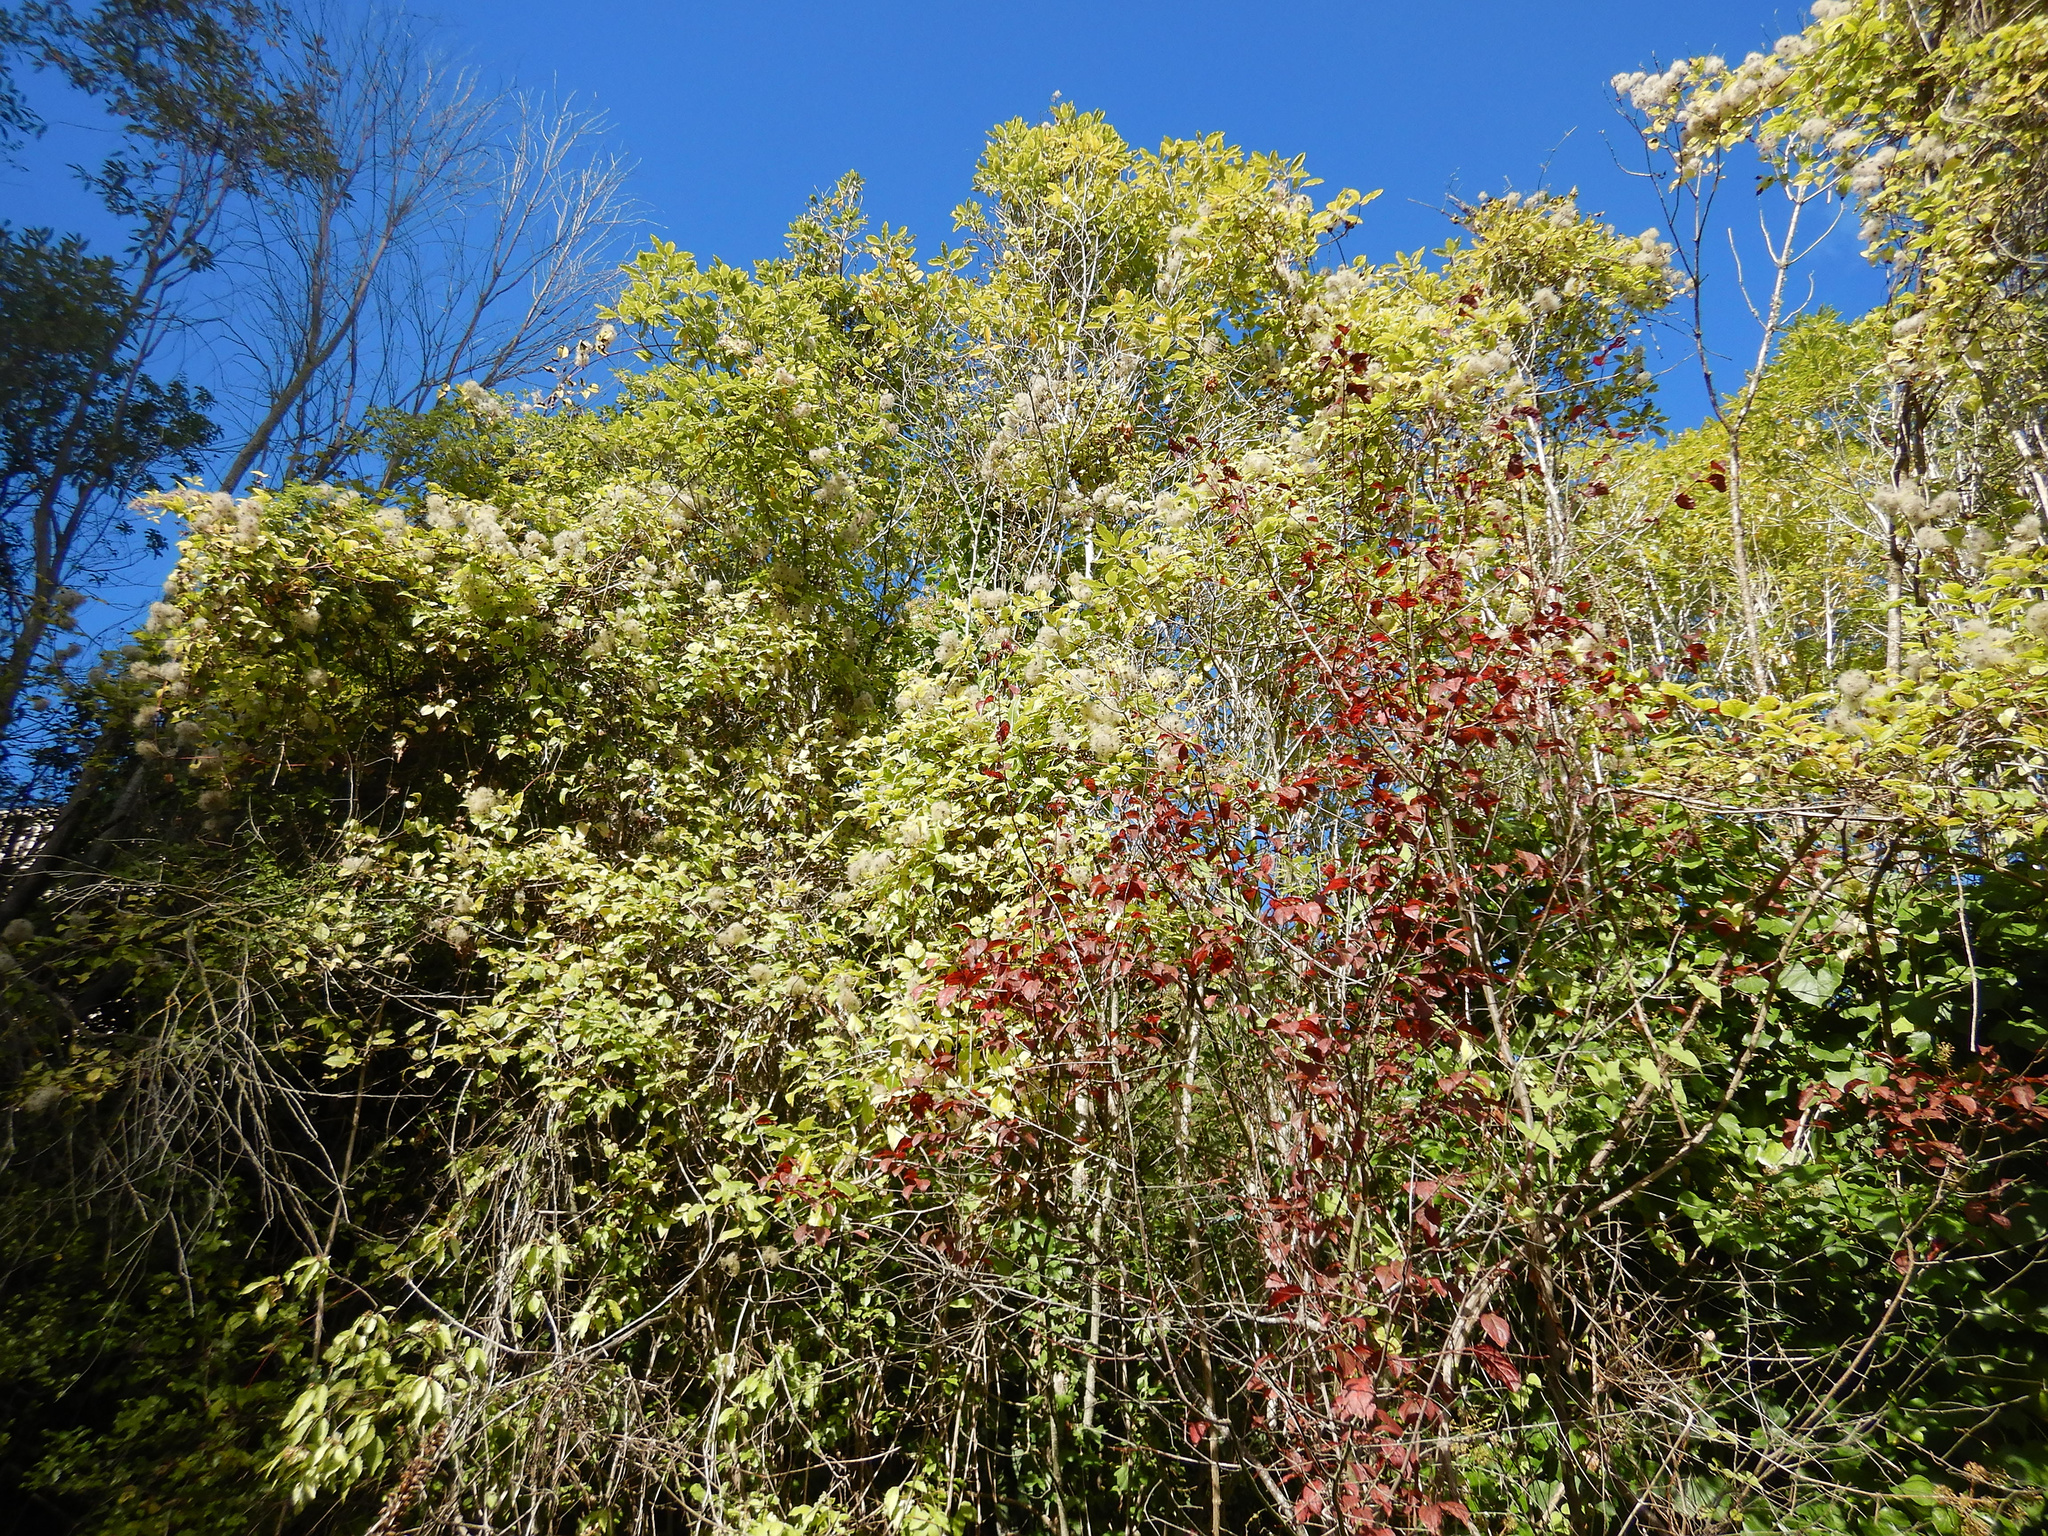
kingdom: Plantae
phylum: Tracheophyta
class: Magnoliopsida
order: Ranunculales
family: Ranunculaceae
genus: Clematis
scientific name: Clematis vitalba
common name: Evergreen clematis
